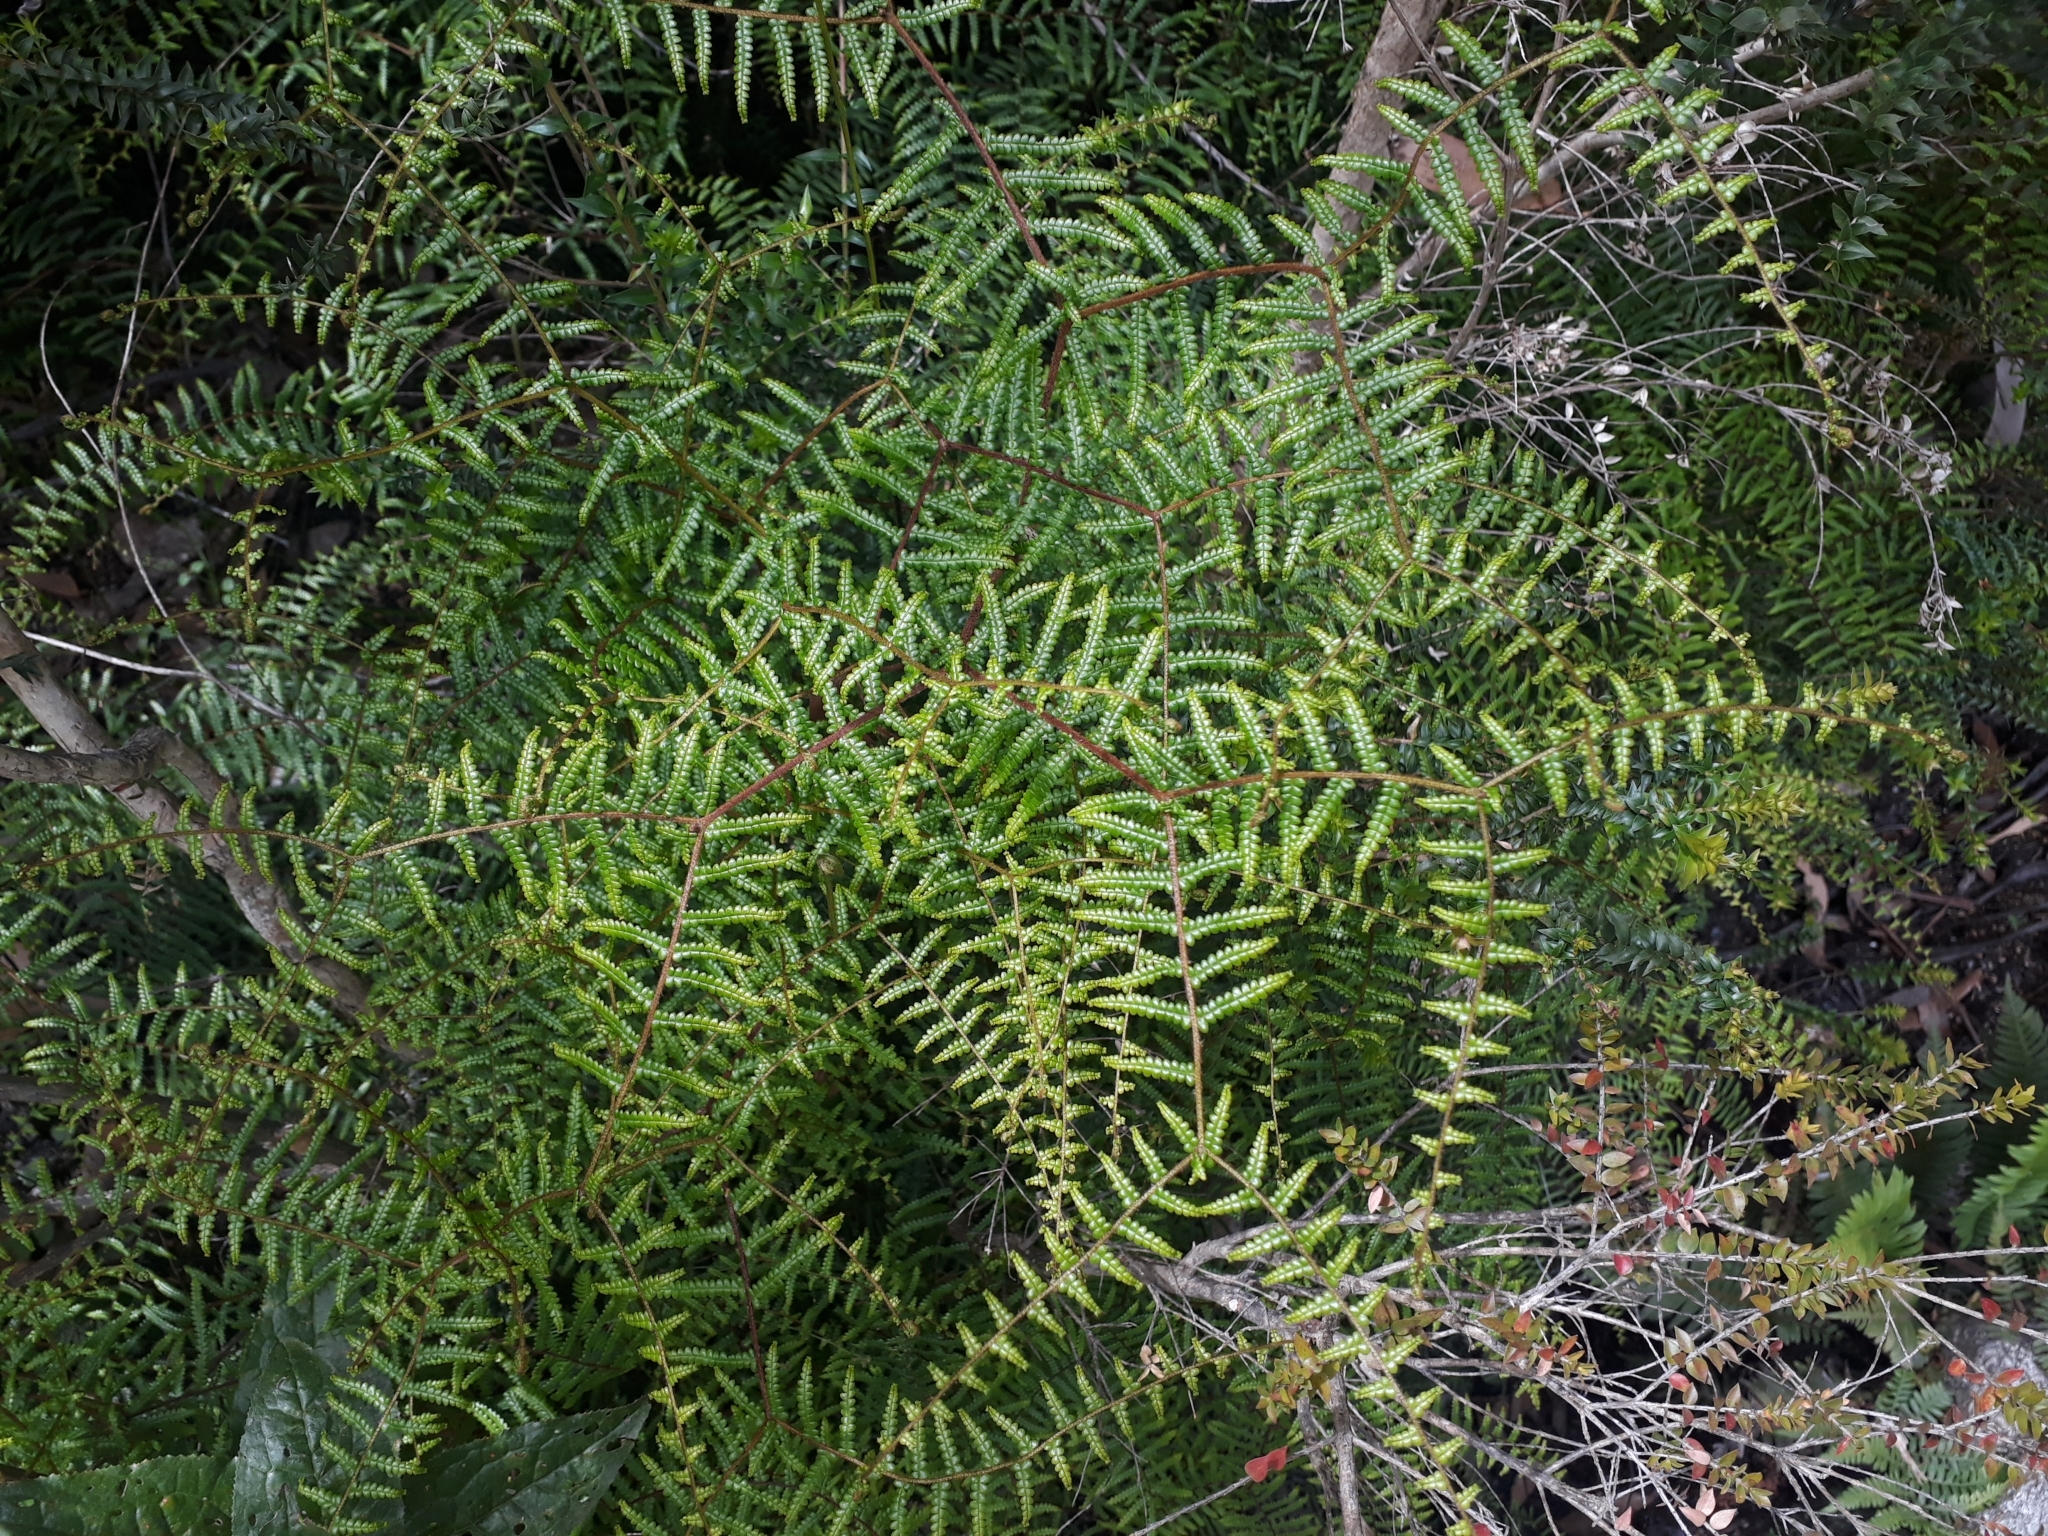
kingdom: Plantae
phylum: Tracheophyta
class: Polypodiopsida
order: Gleicheniales
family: Gleicheniaceae
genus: Gleichenia
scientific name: Gleichenia microphylla
